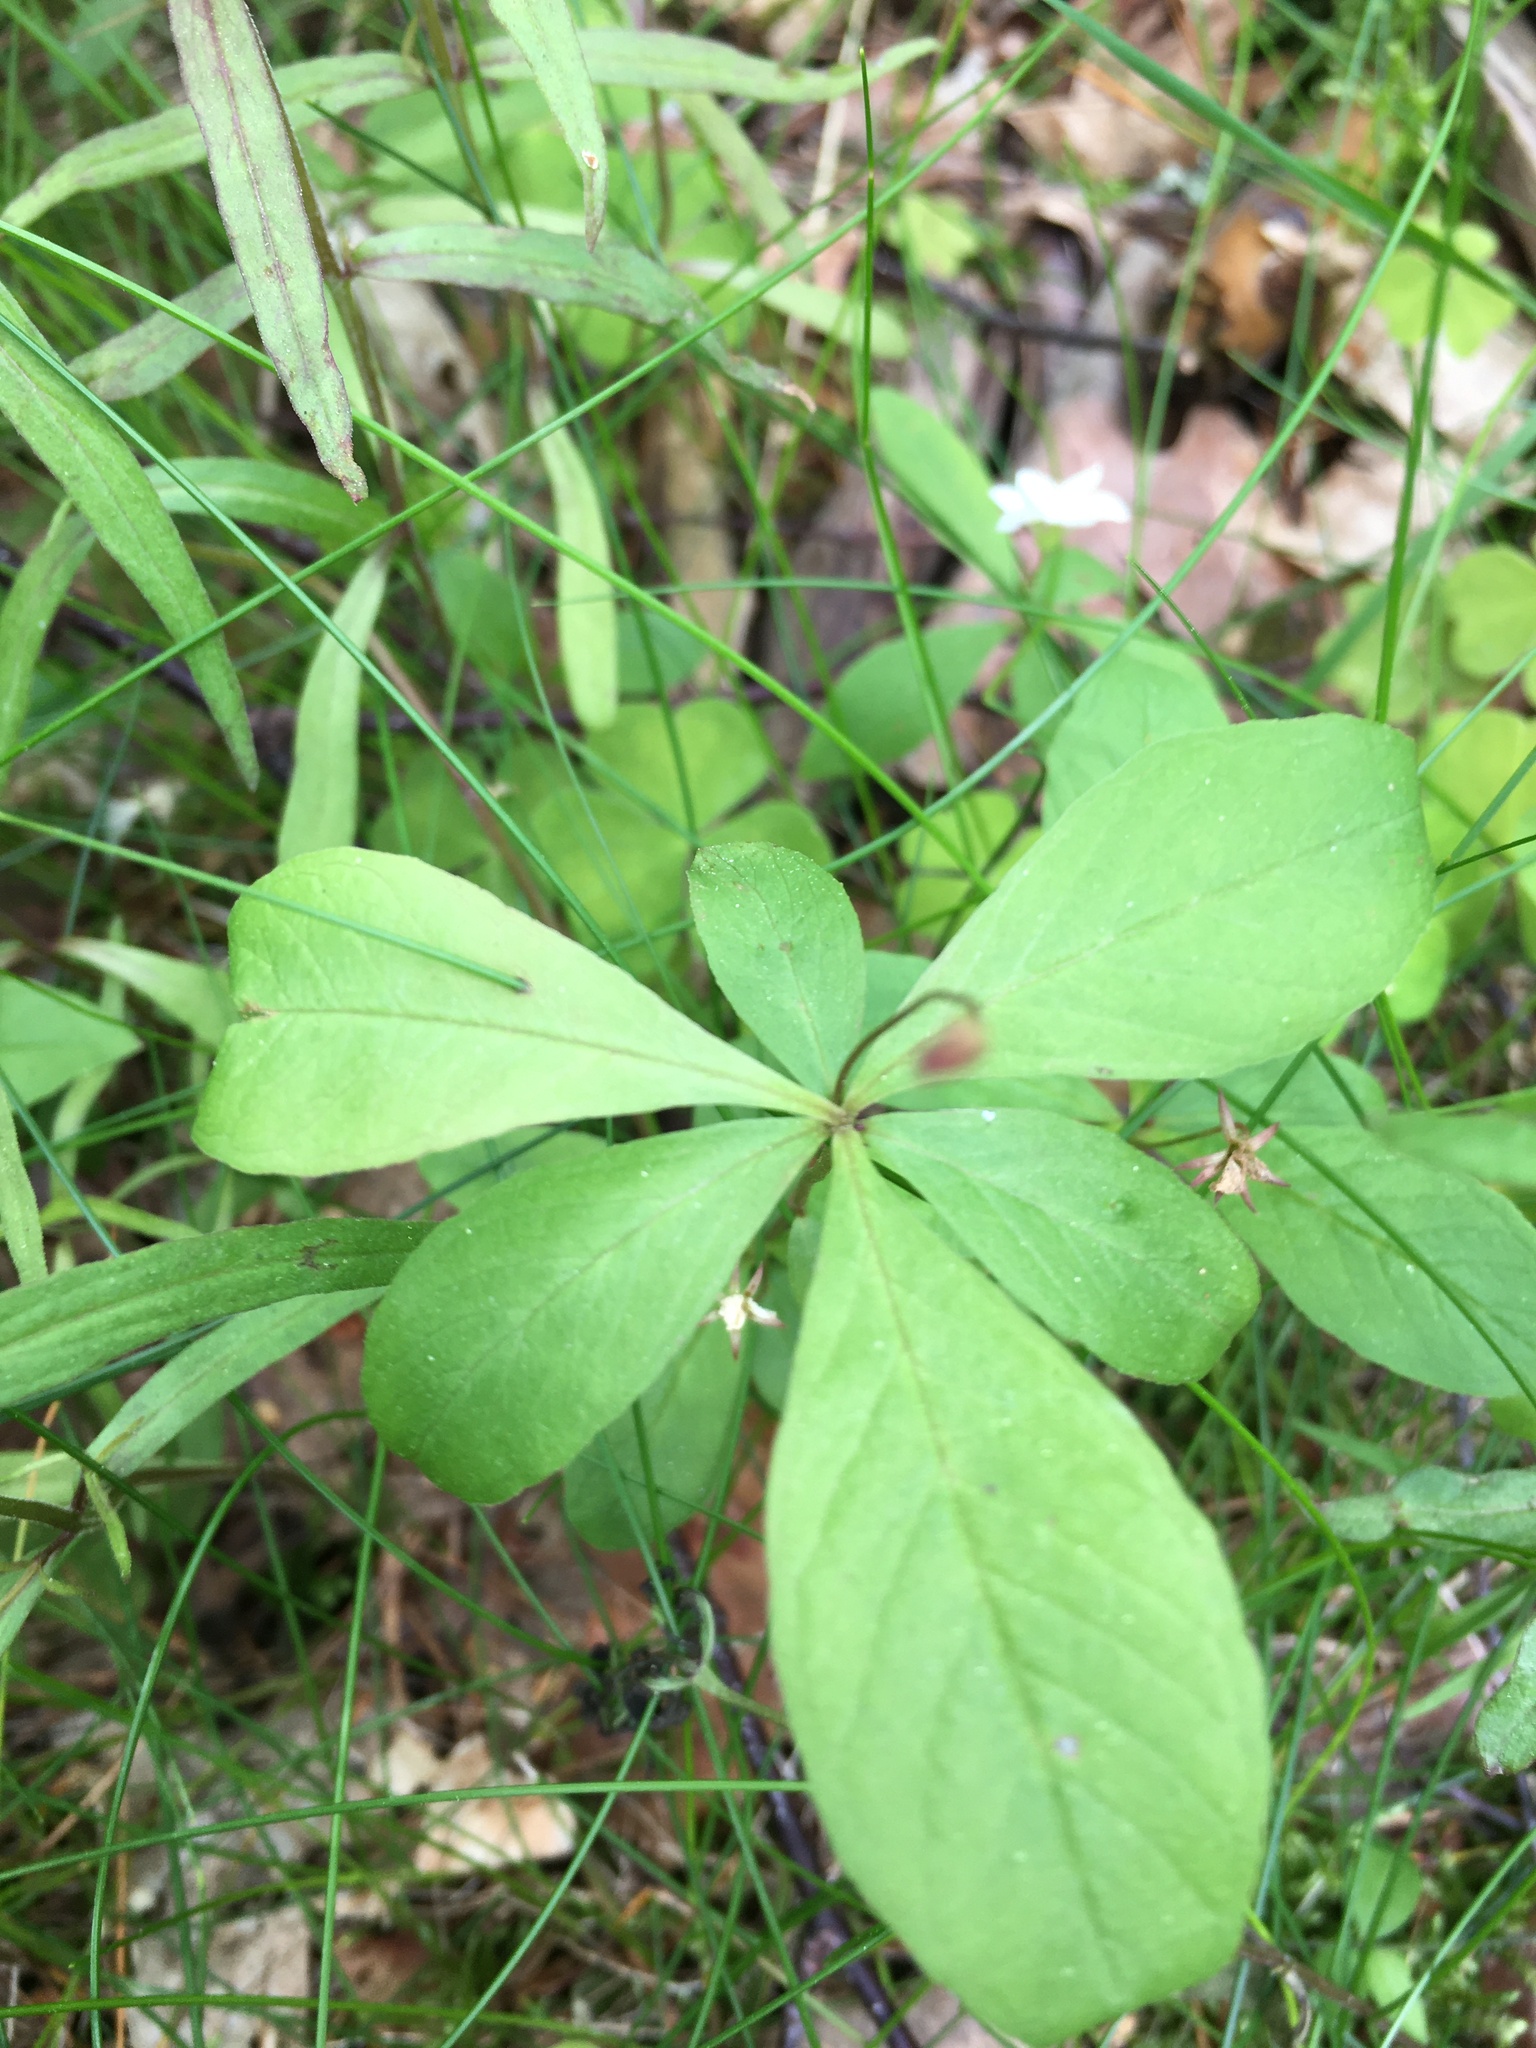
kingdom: Plantae
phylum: Tracheophyta
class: Magnoliopsida
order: Ericales
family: Primulaceae
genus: Lysimachia
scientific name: Lysimachia europaea
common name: Arctic starflower
